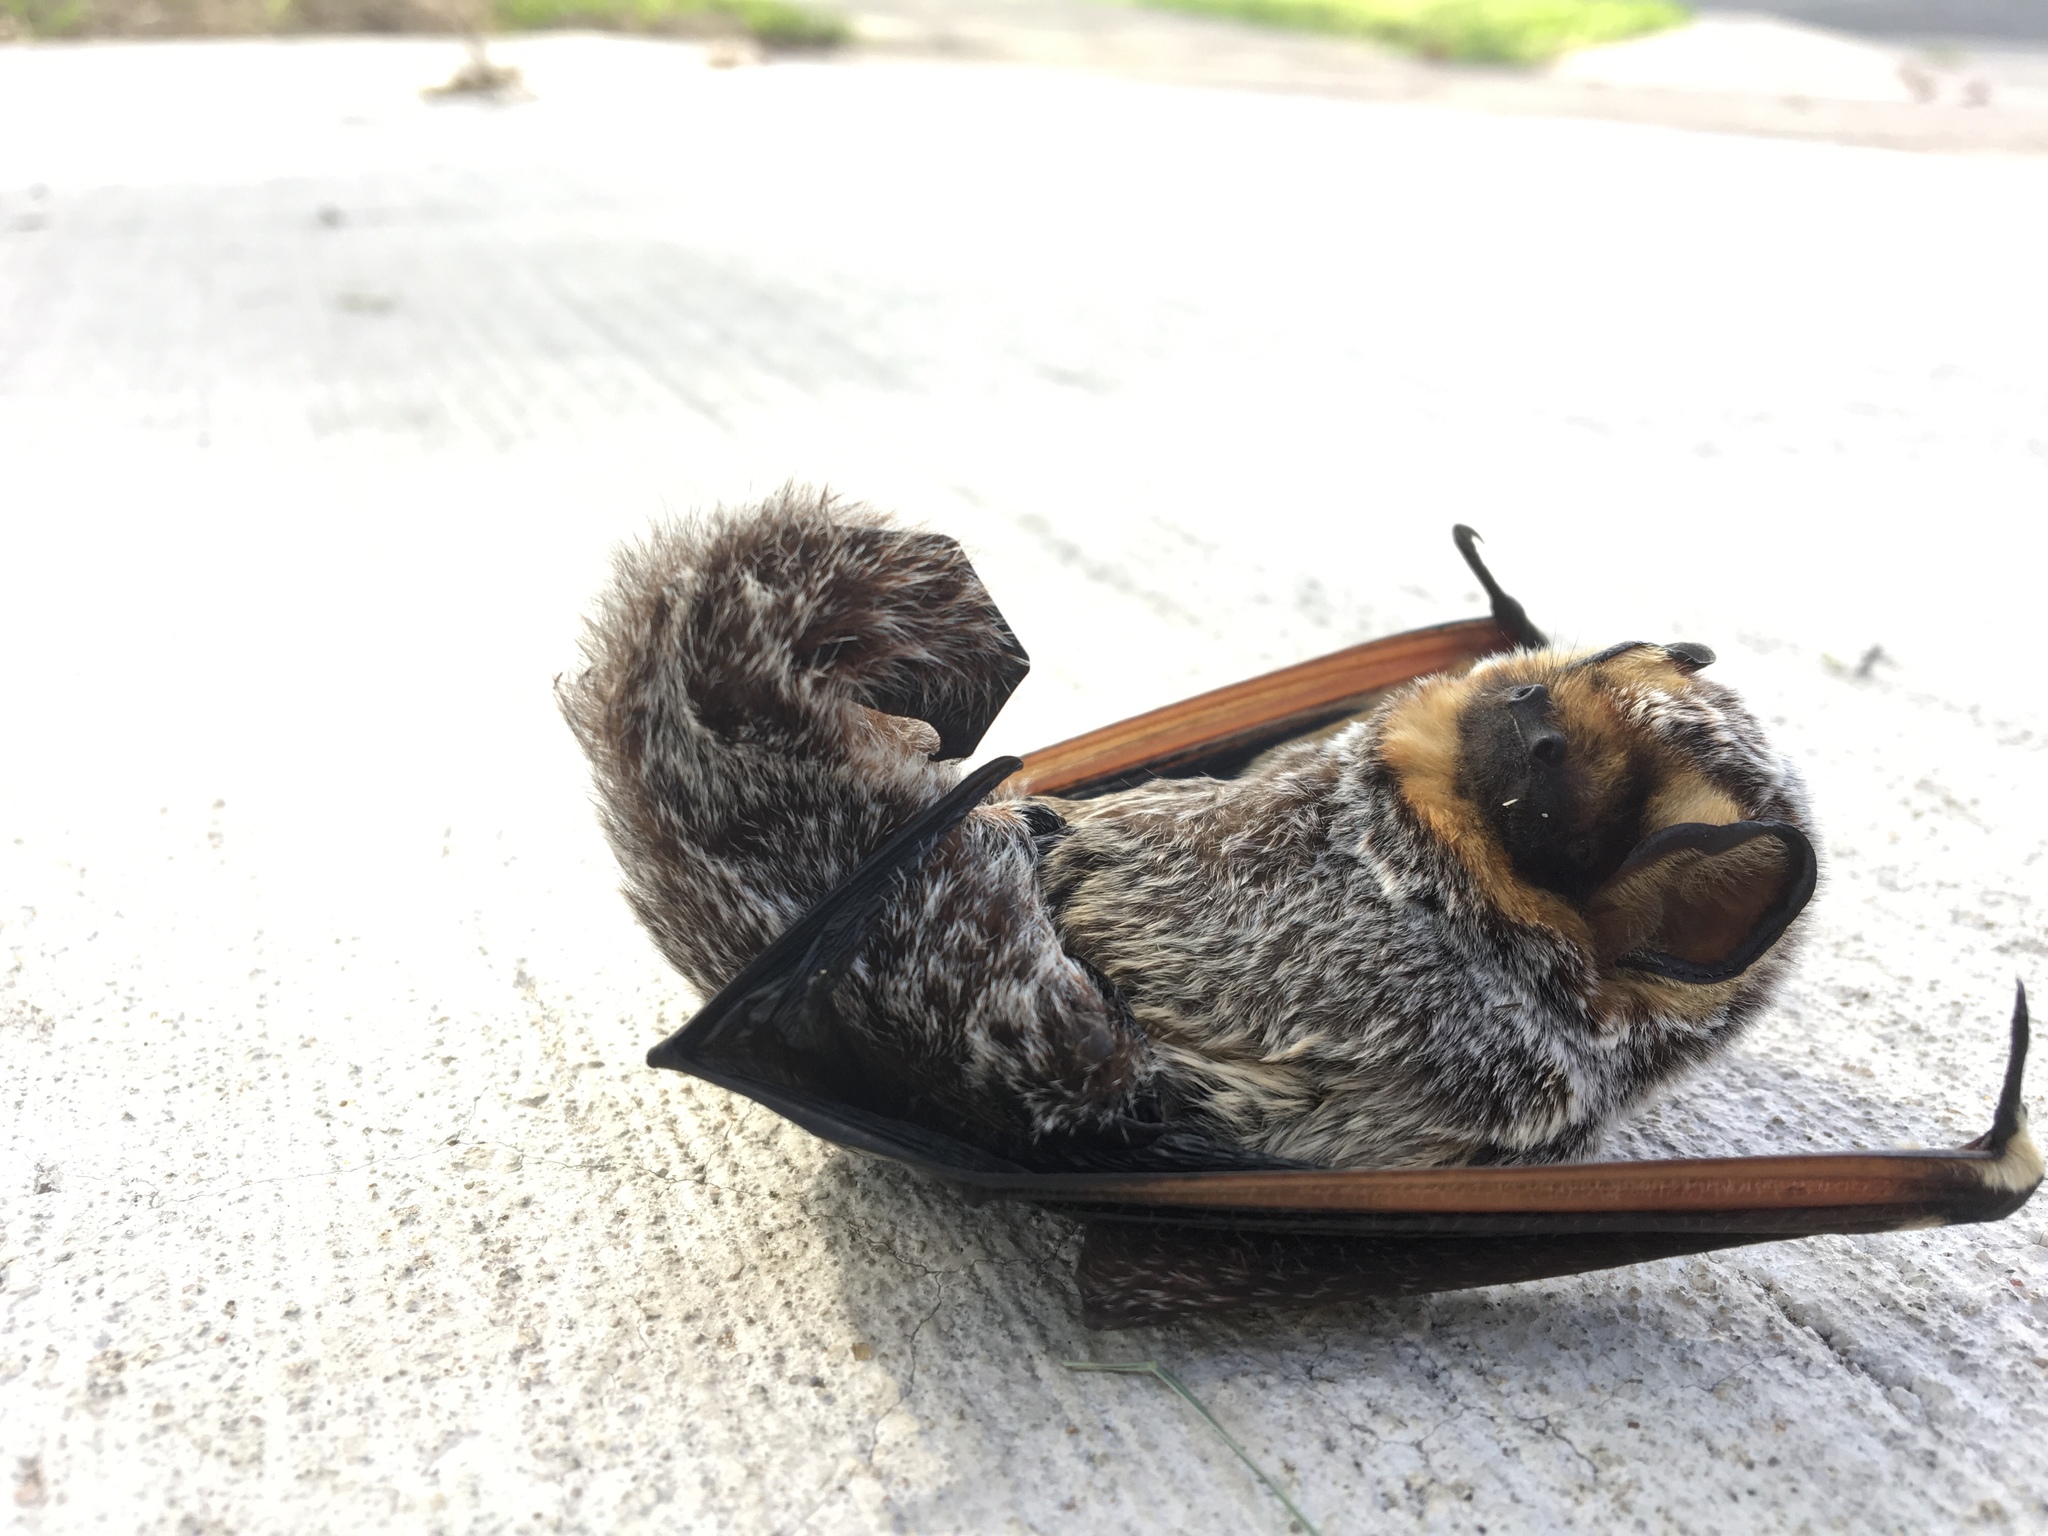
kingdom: Animalia
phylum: Chordata
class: Mammalia
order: Chiroptera
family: Vespertilionidae
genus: Aeorestes
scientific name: Aeorestes cinereus
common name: North american hoary bat
